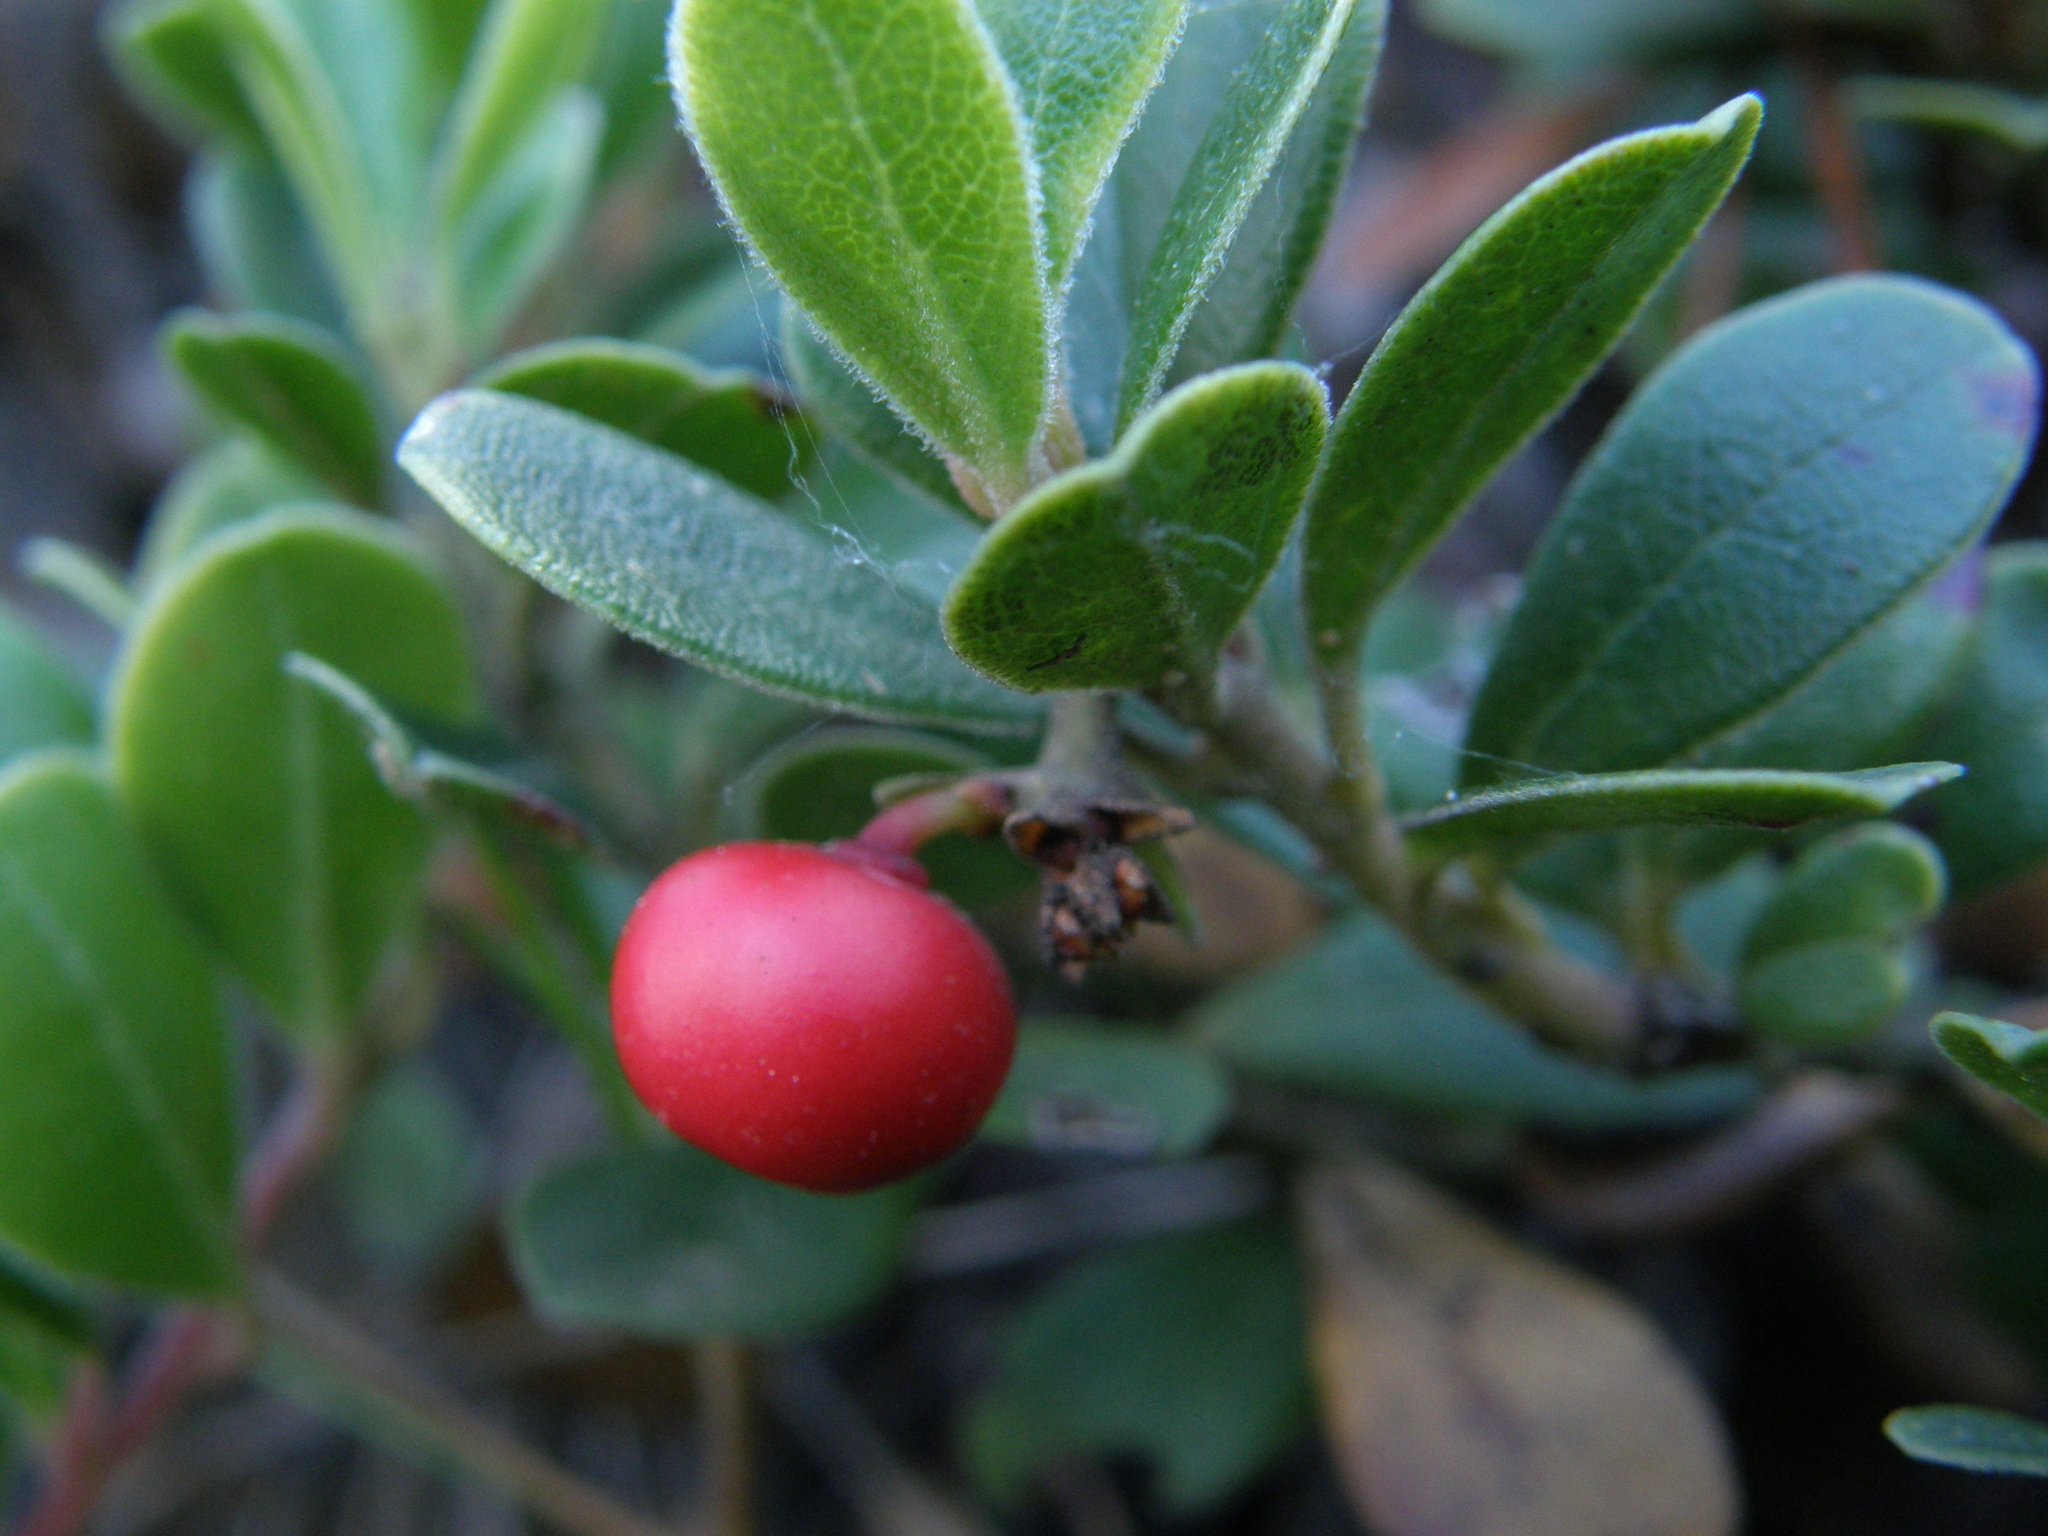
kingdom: Plantae
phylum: Tracheophyta
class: Magnoliopsida
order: Ericales
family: Ericaceae
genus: Arctostaphylos
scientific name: Arctostaphylos uva-ursi
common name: Bearberry
